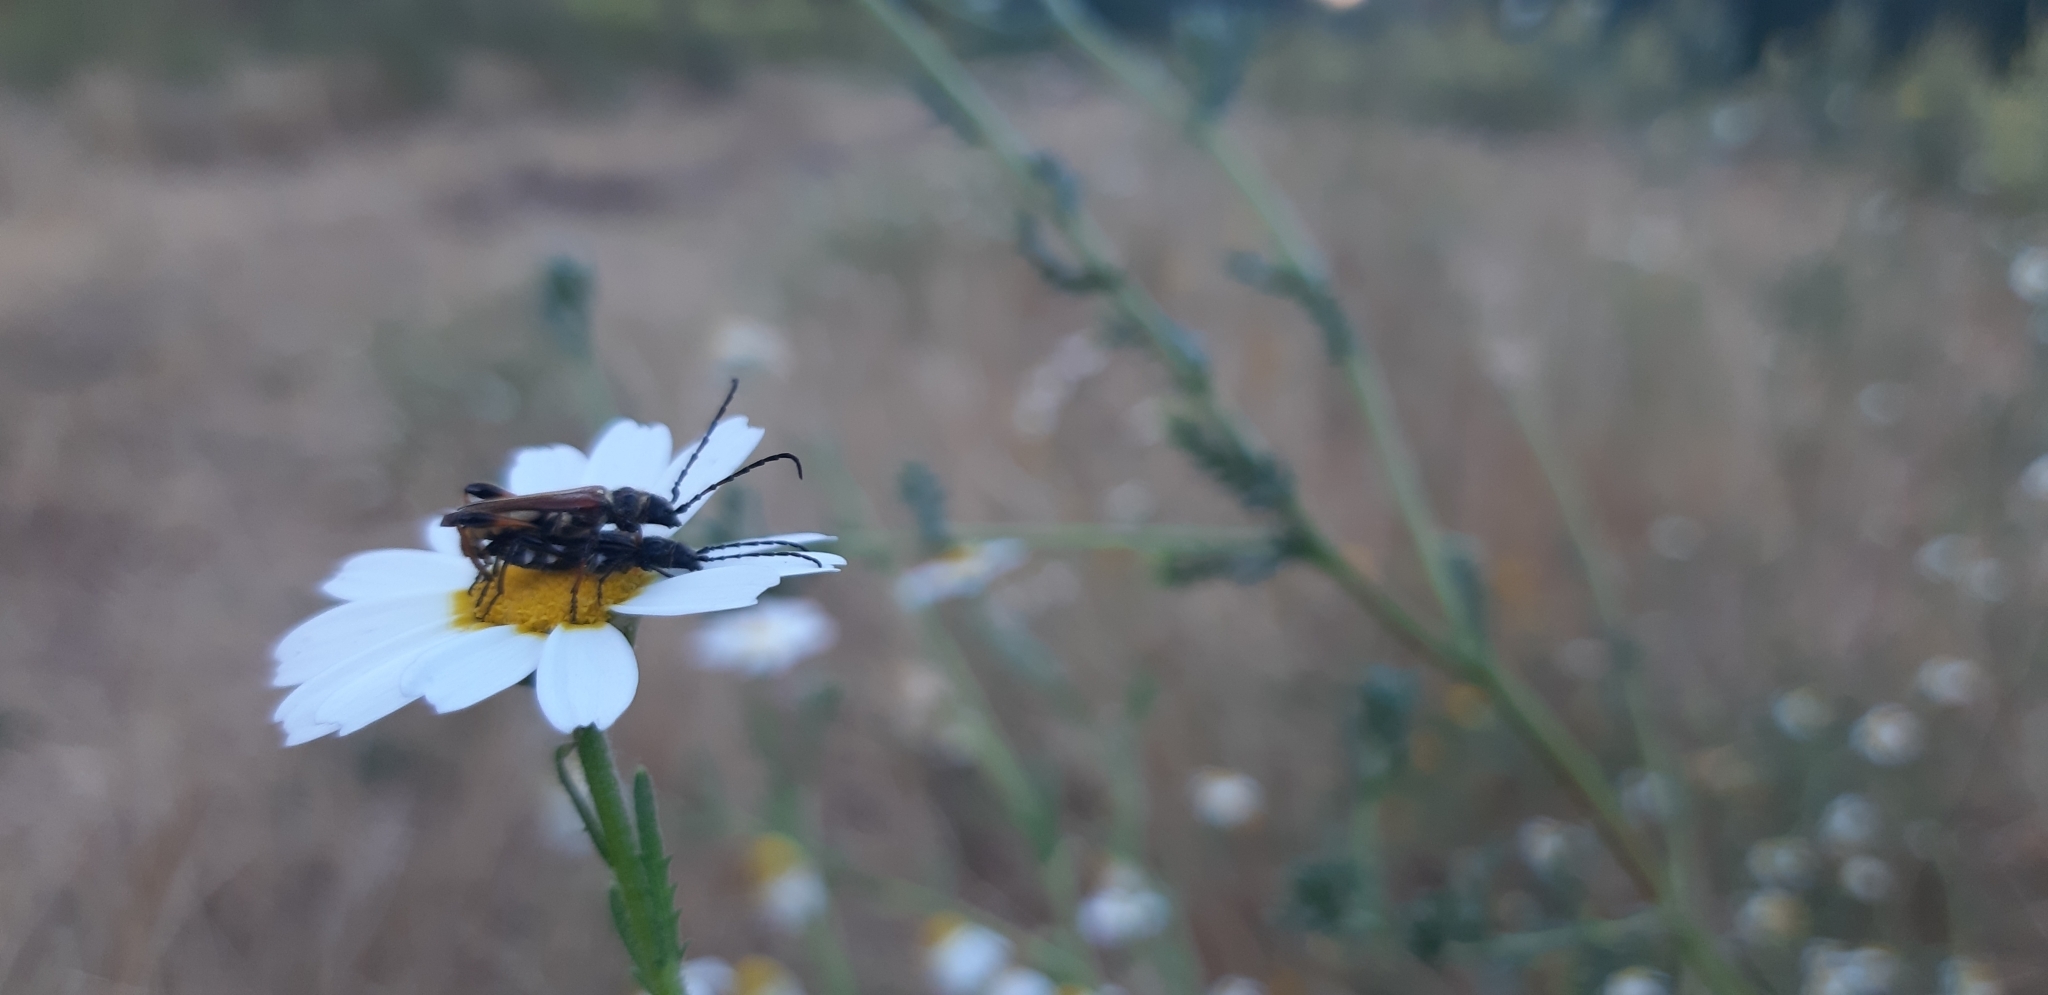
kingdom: Animalia
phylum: Arthropoda
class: Insecta
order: Coleoptera
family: Cerambycidae
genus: Stenopterus
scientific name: Stenopterus ater
